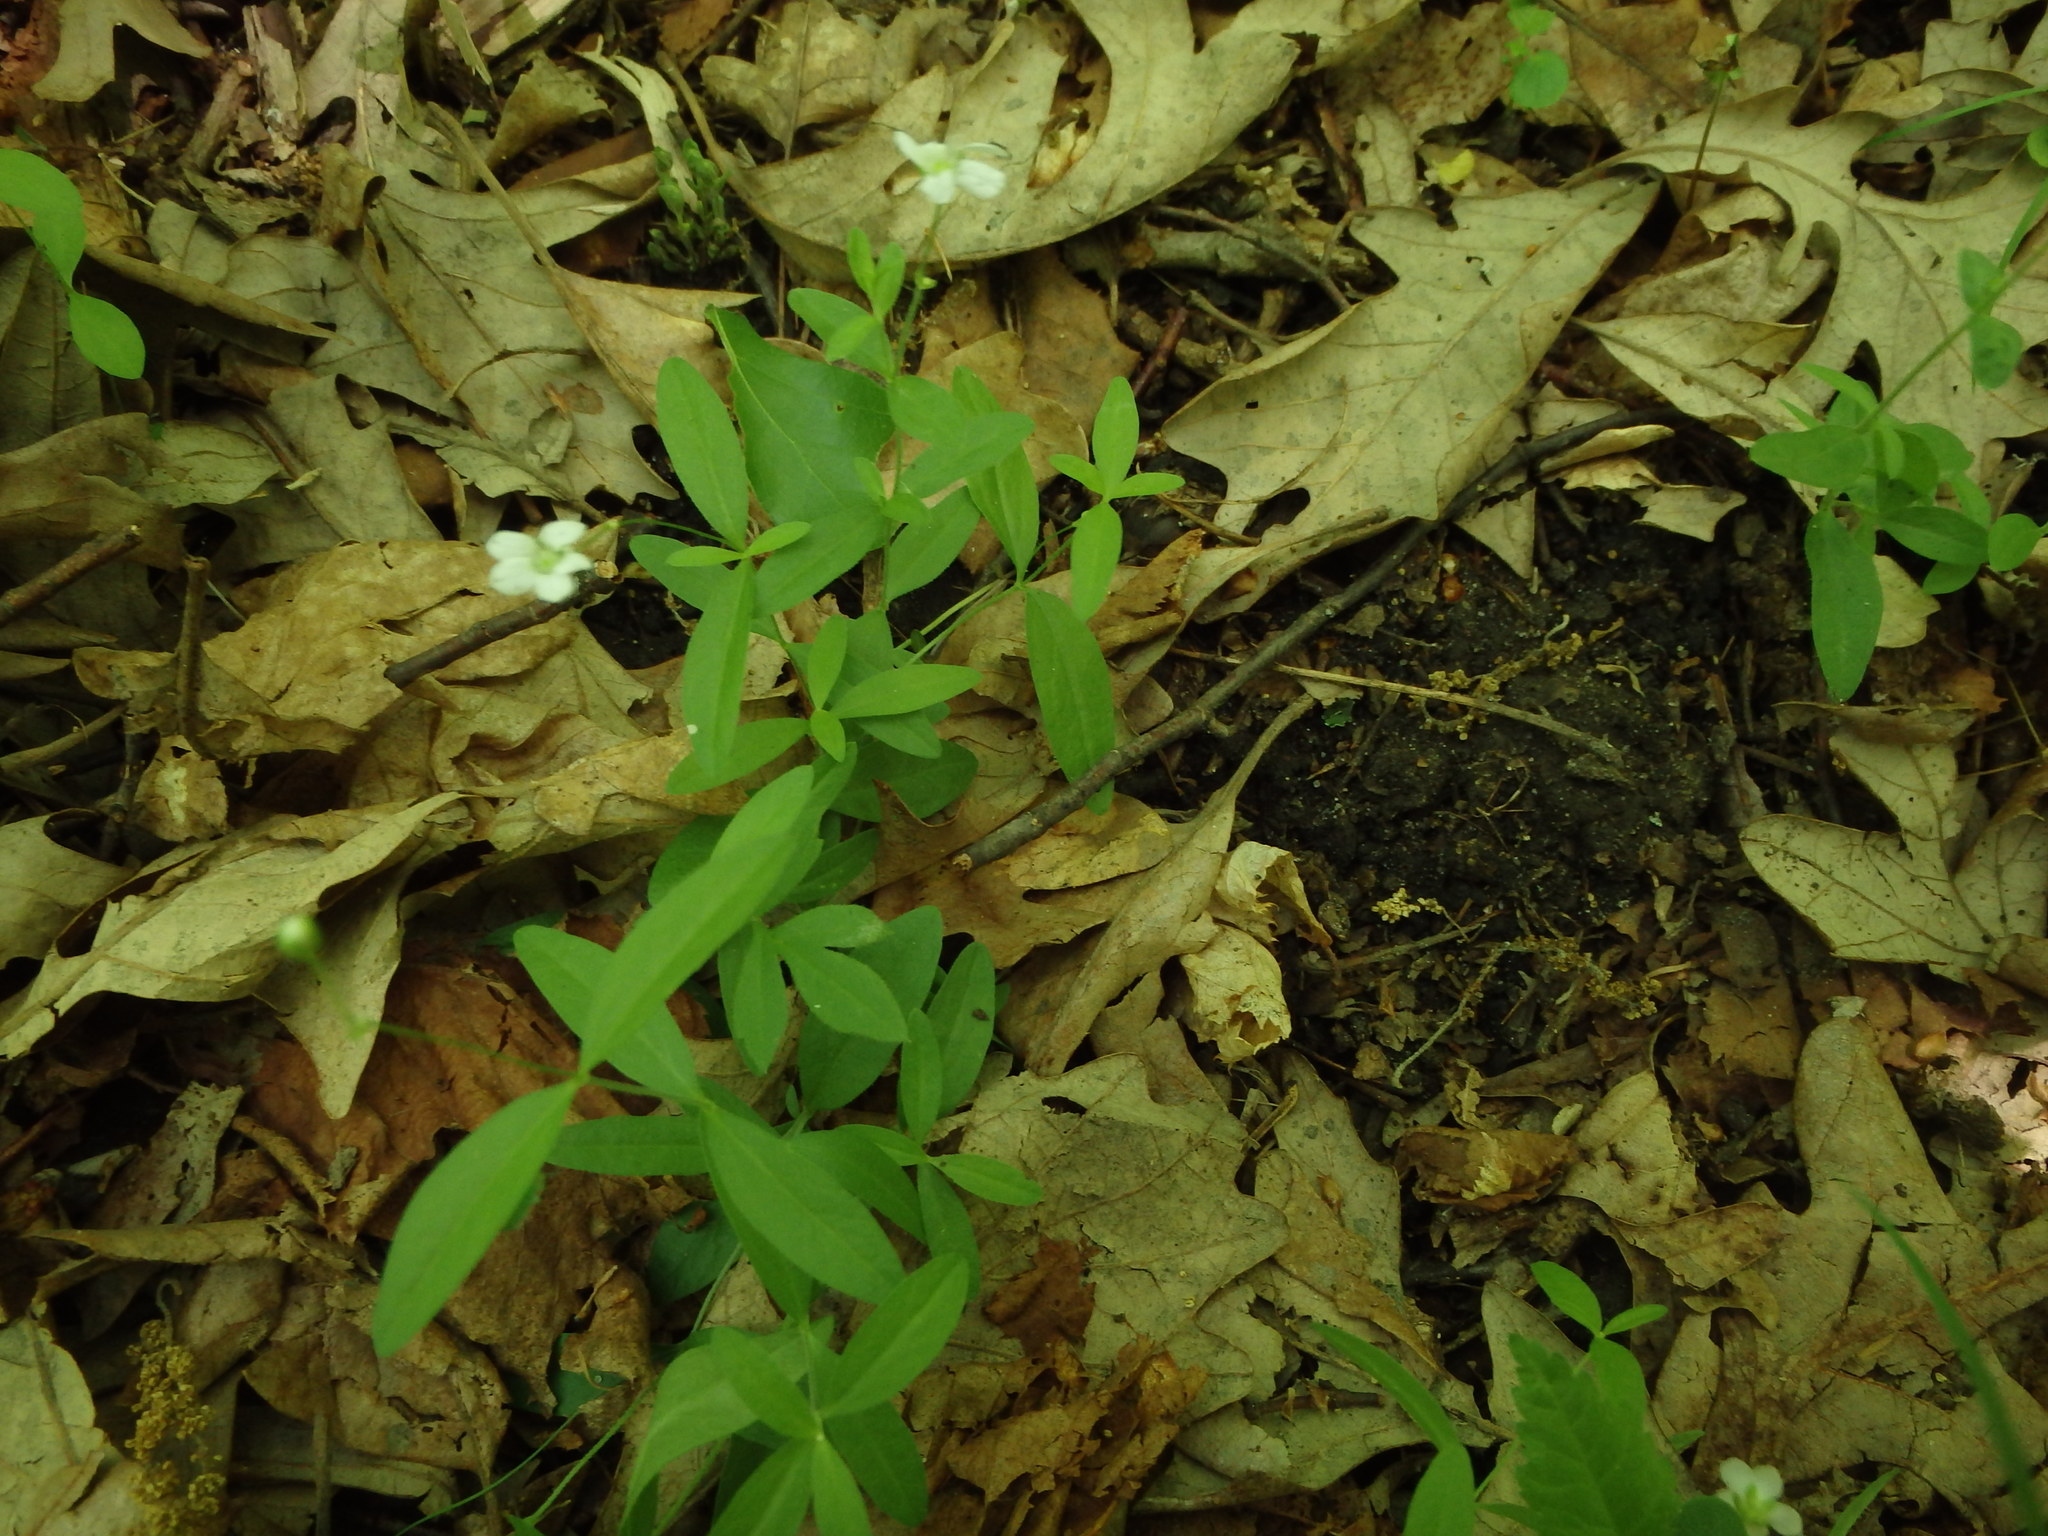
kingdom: Plantae
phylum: Tracheophyta
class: Magnoliopsida
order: Caryophyllales
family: Caryophyllaceae
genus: Moehringia
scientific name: Moehringia lateriflora
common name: Blunt-leaved sandwort
